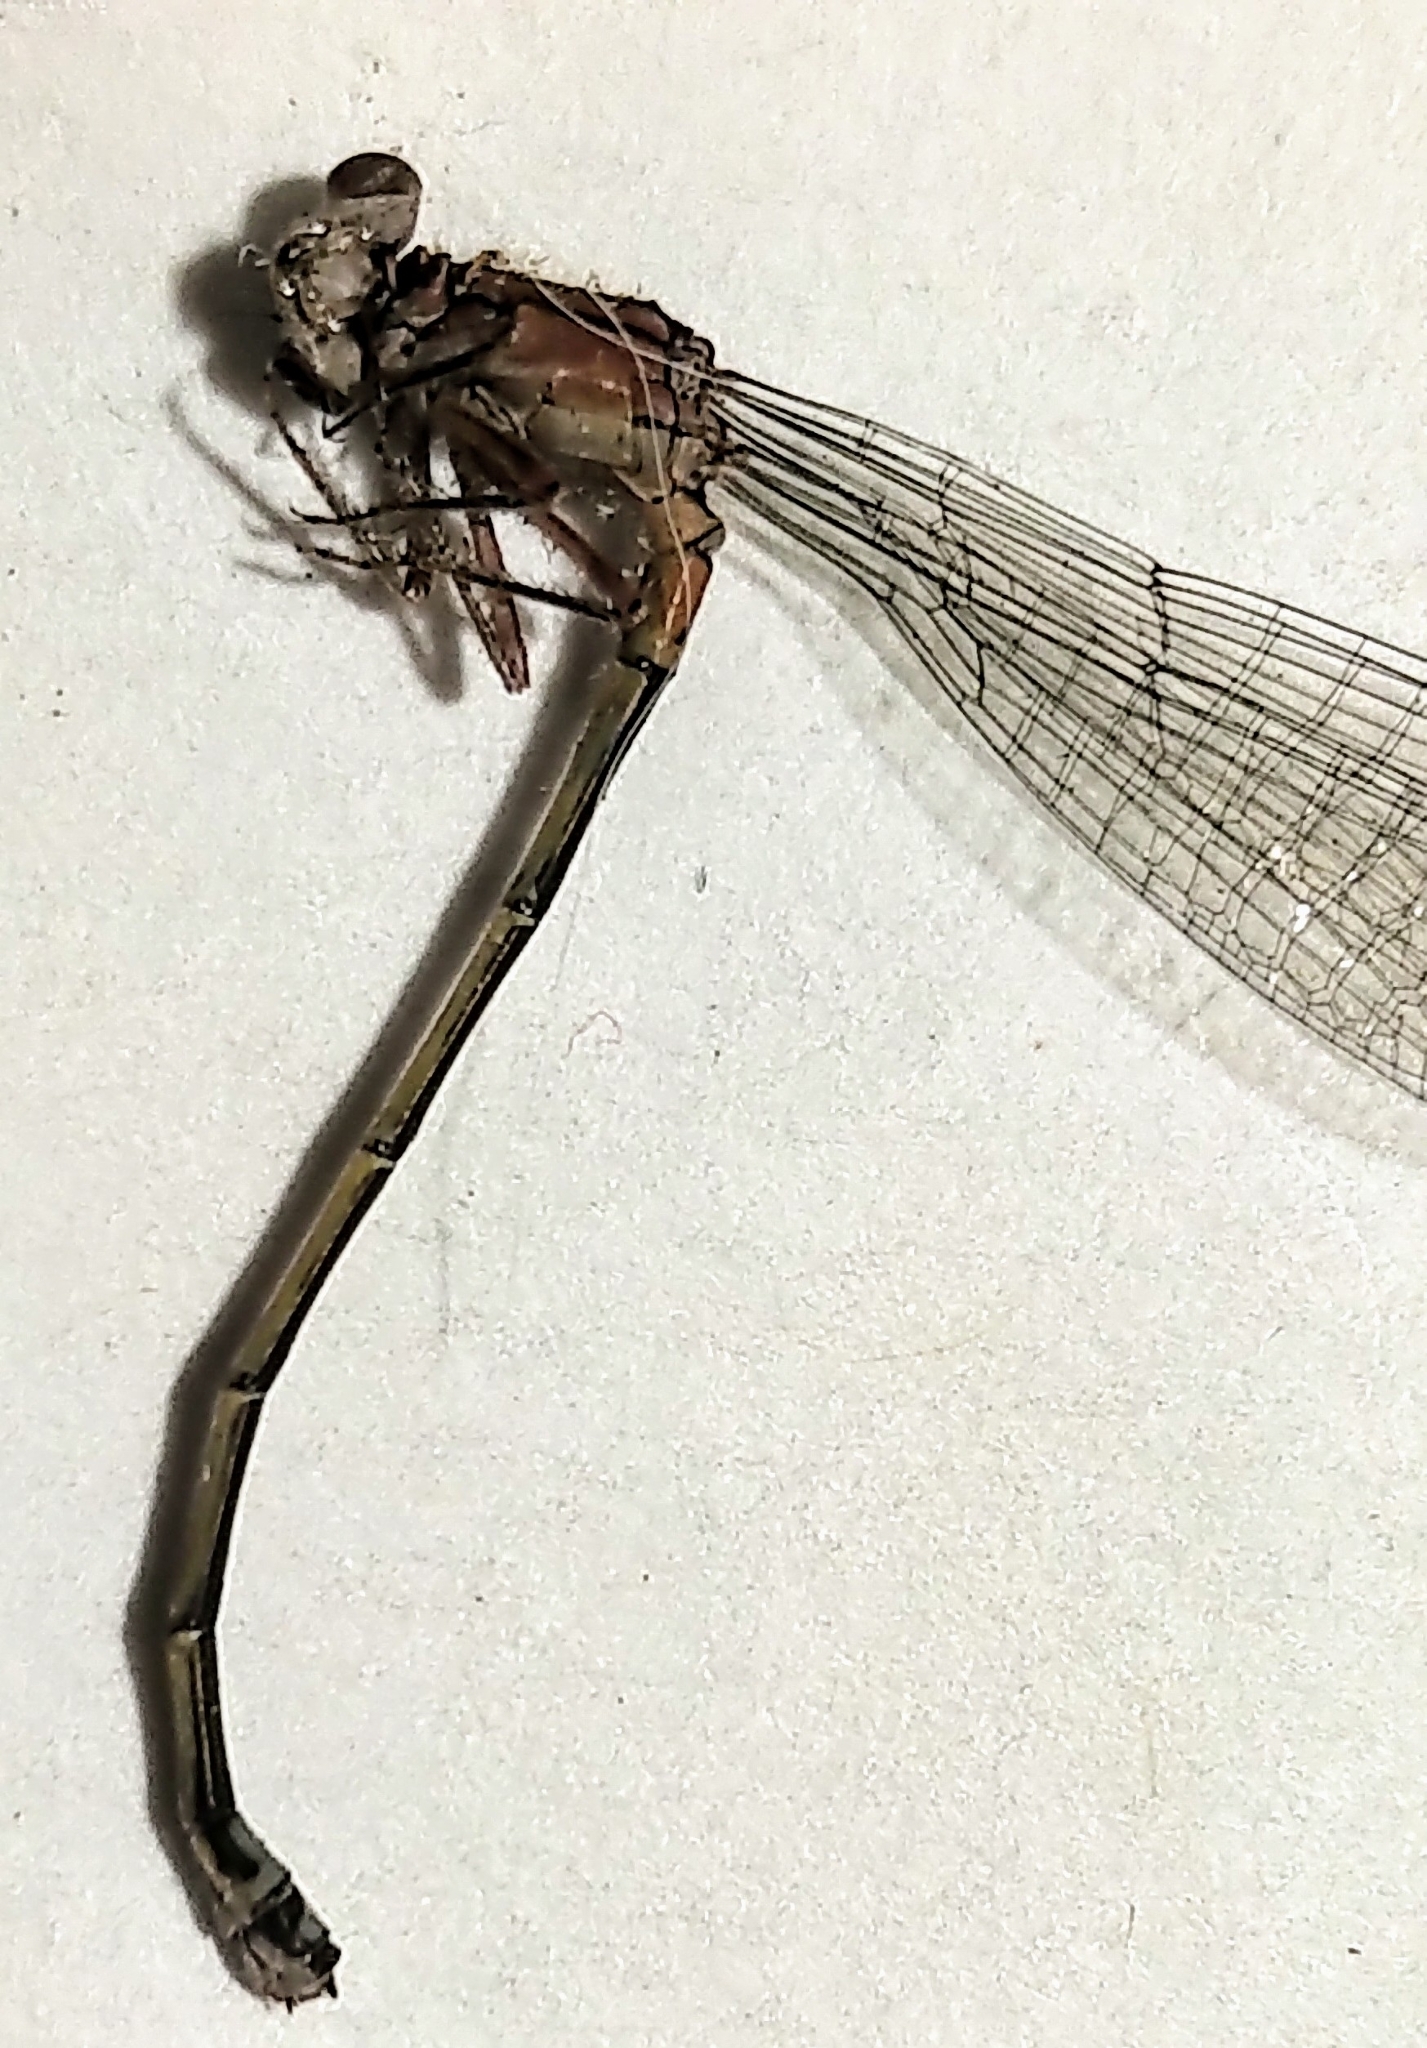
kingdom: Animalia
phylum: Arthropoda
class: Insecta
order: Odonata
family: Coenagrionidae
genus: Ischnura
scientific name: Ischnura damula
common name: Plains forktail
